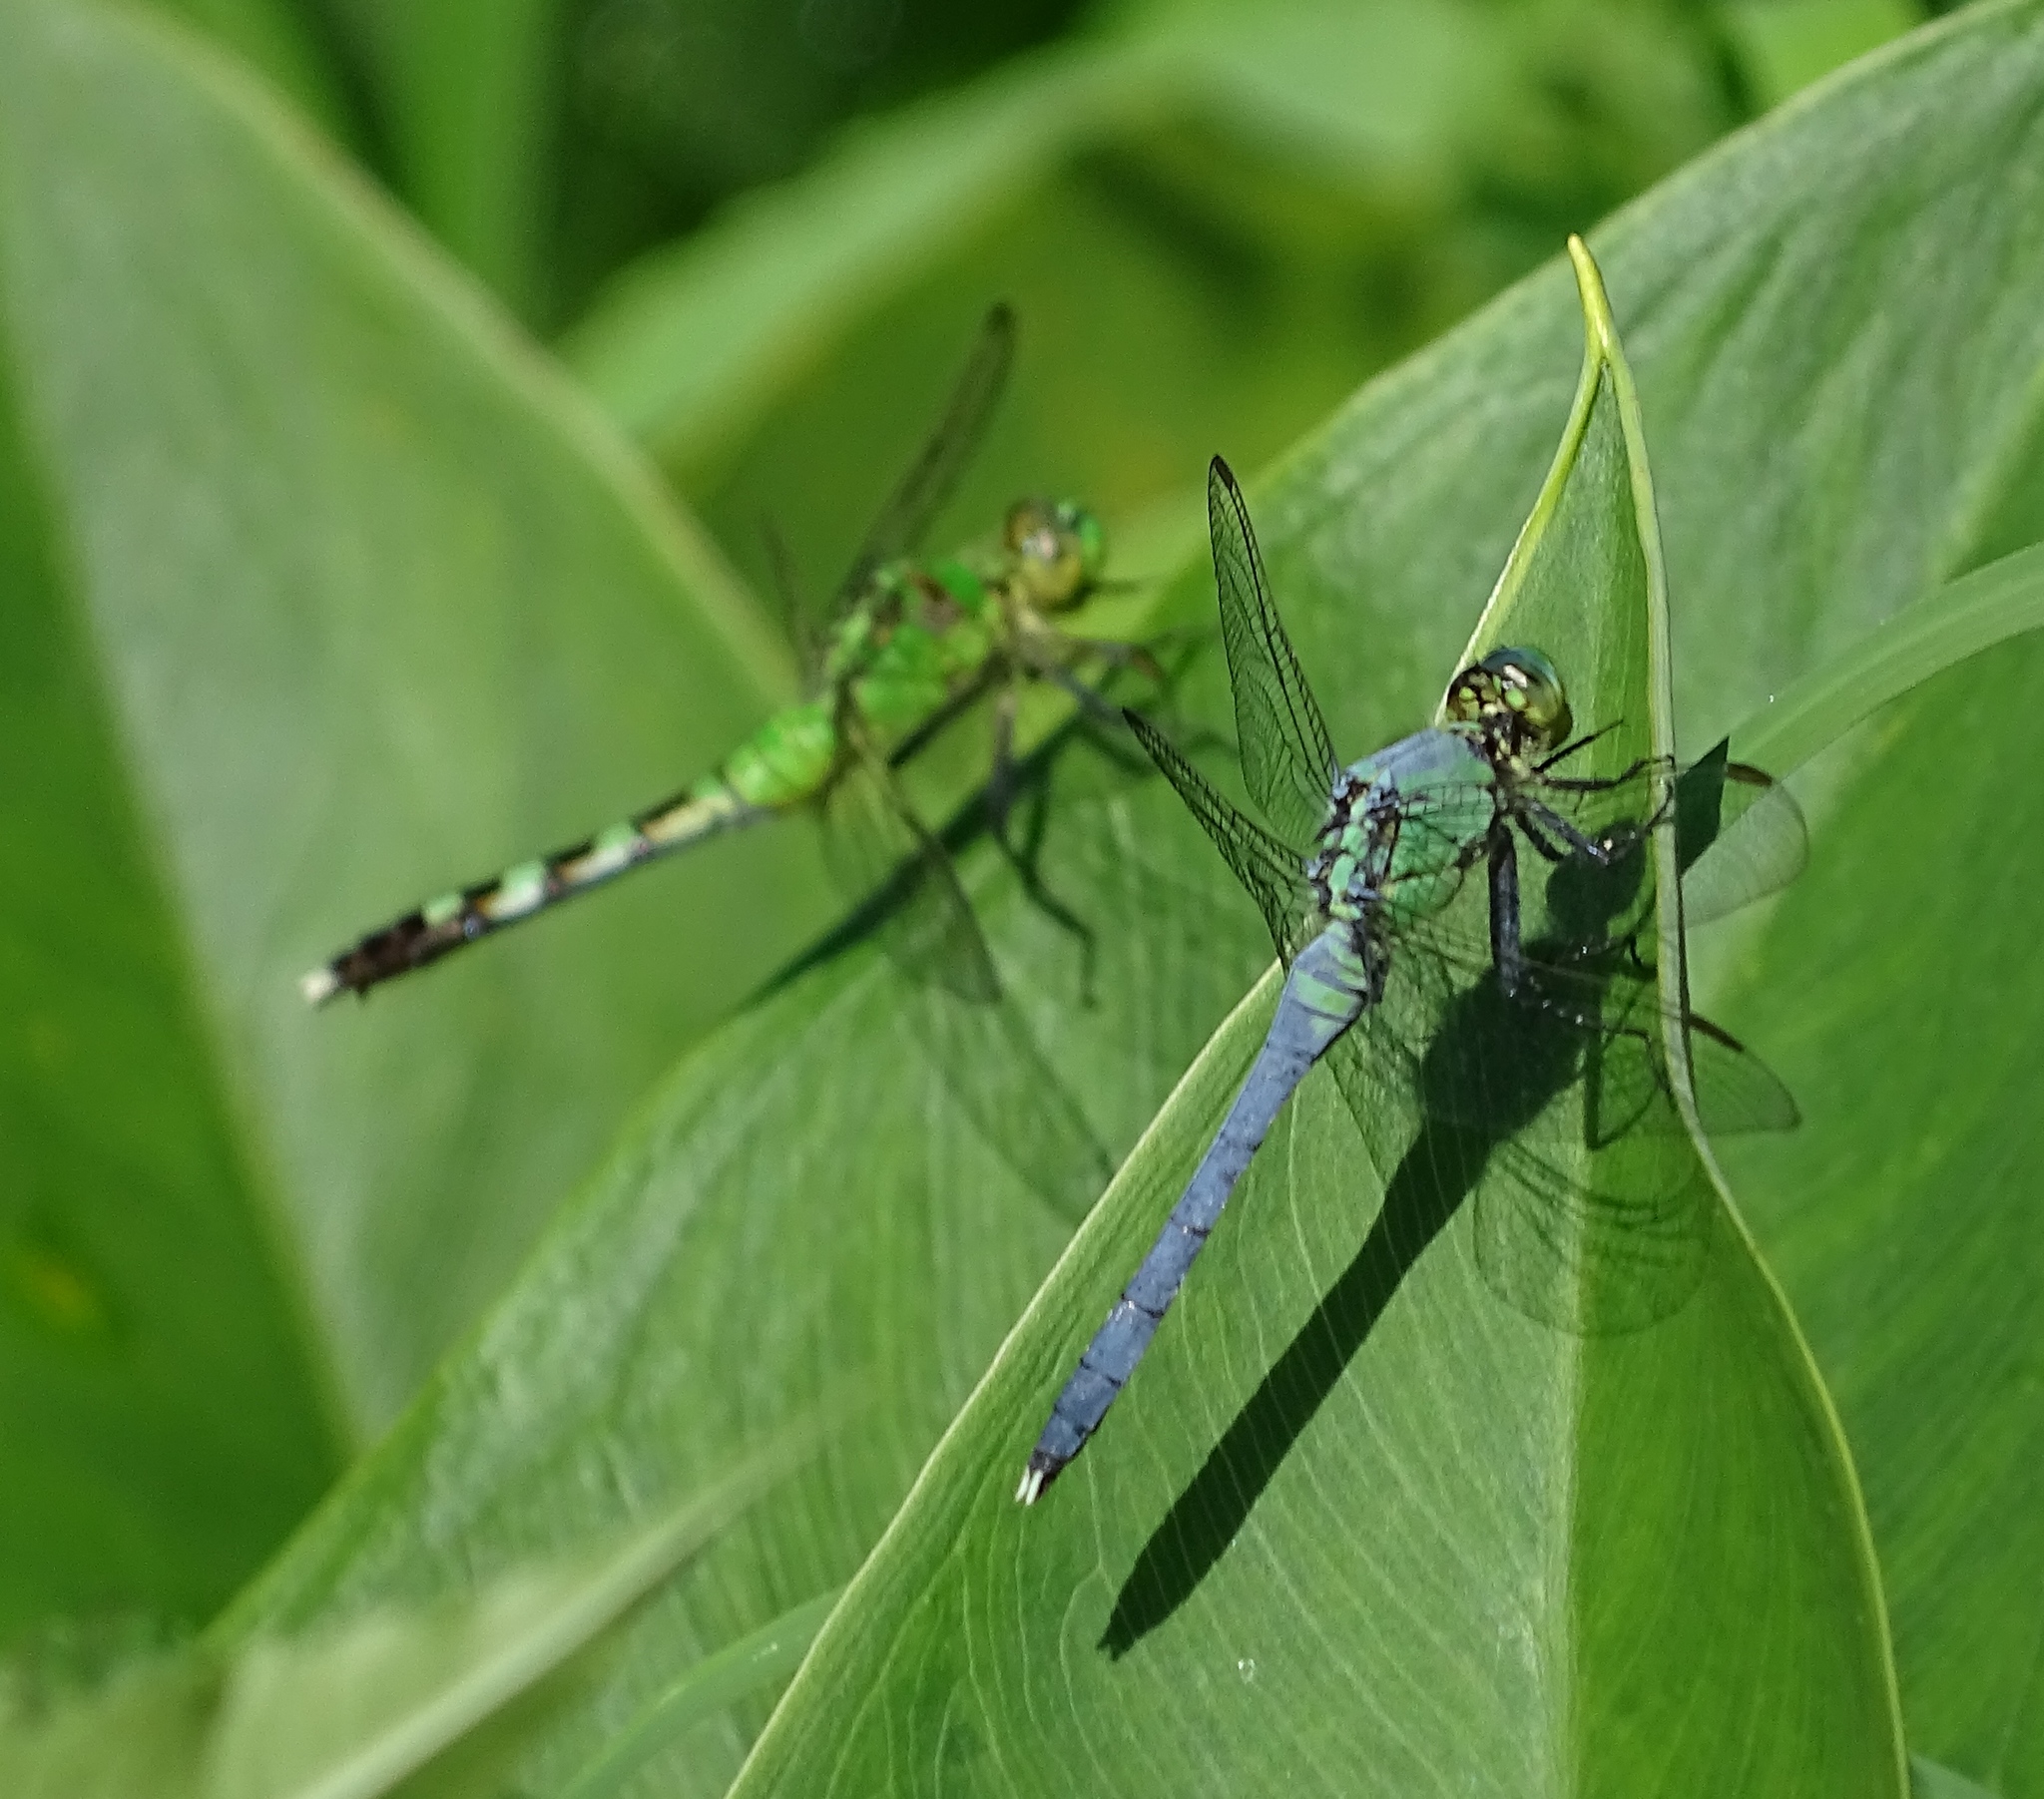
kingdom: Animalia
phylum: Arthropoda
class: Insecta
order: Odonata
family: Libellulidae
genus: Erythemis
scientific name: Erythemis simplicicollis
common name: Eastern pondhawk
